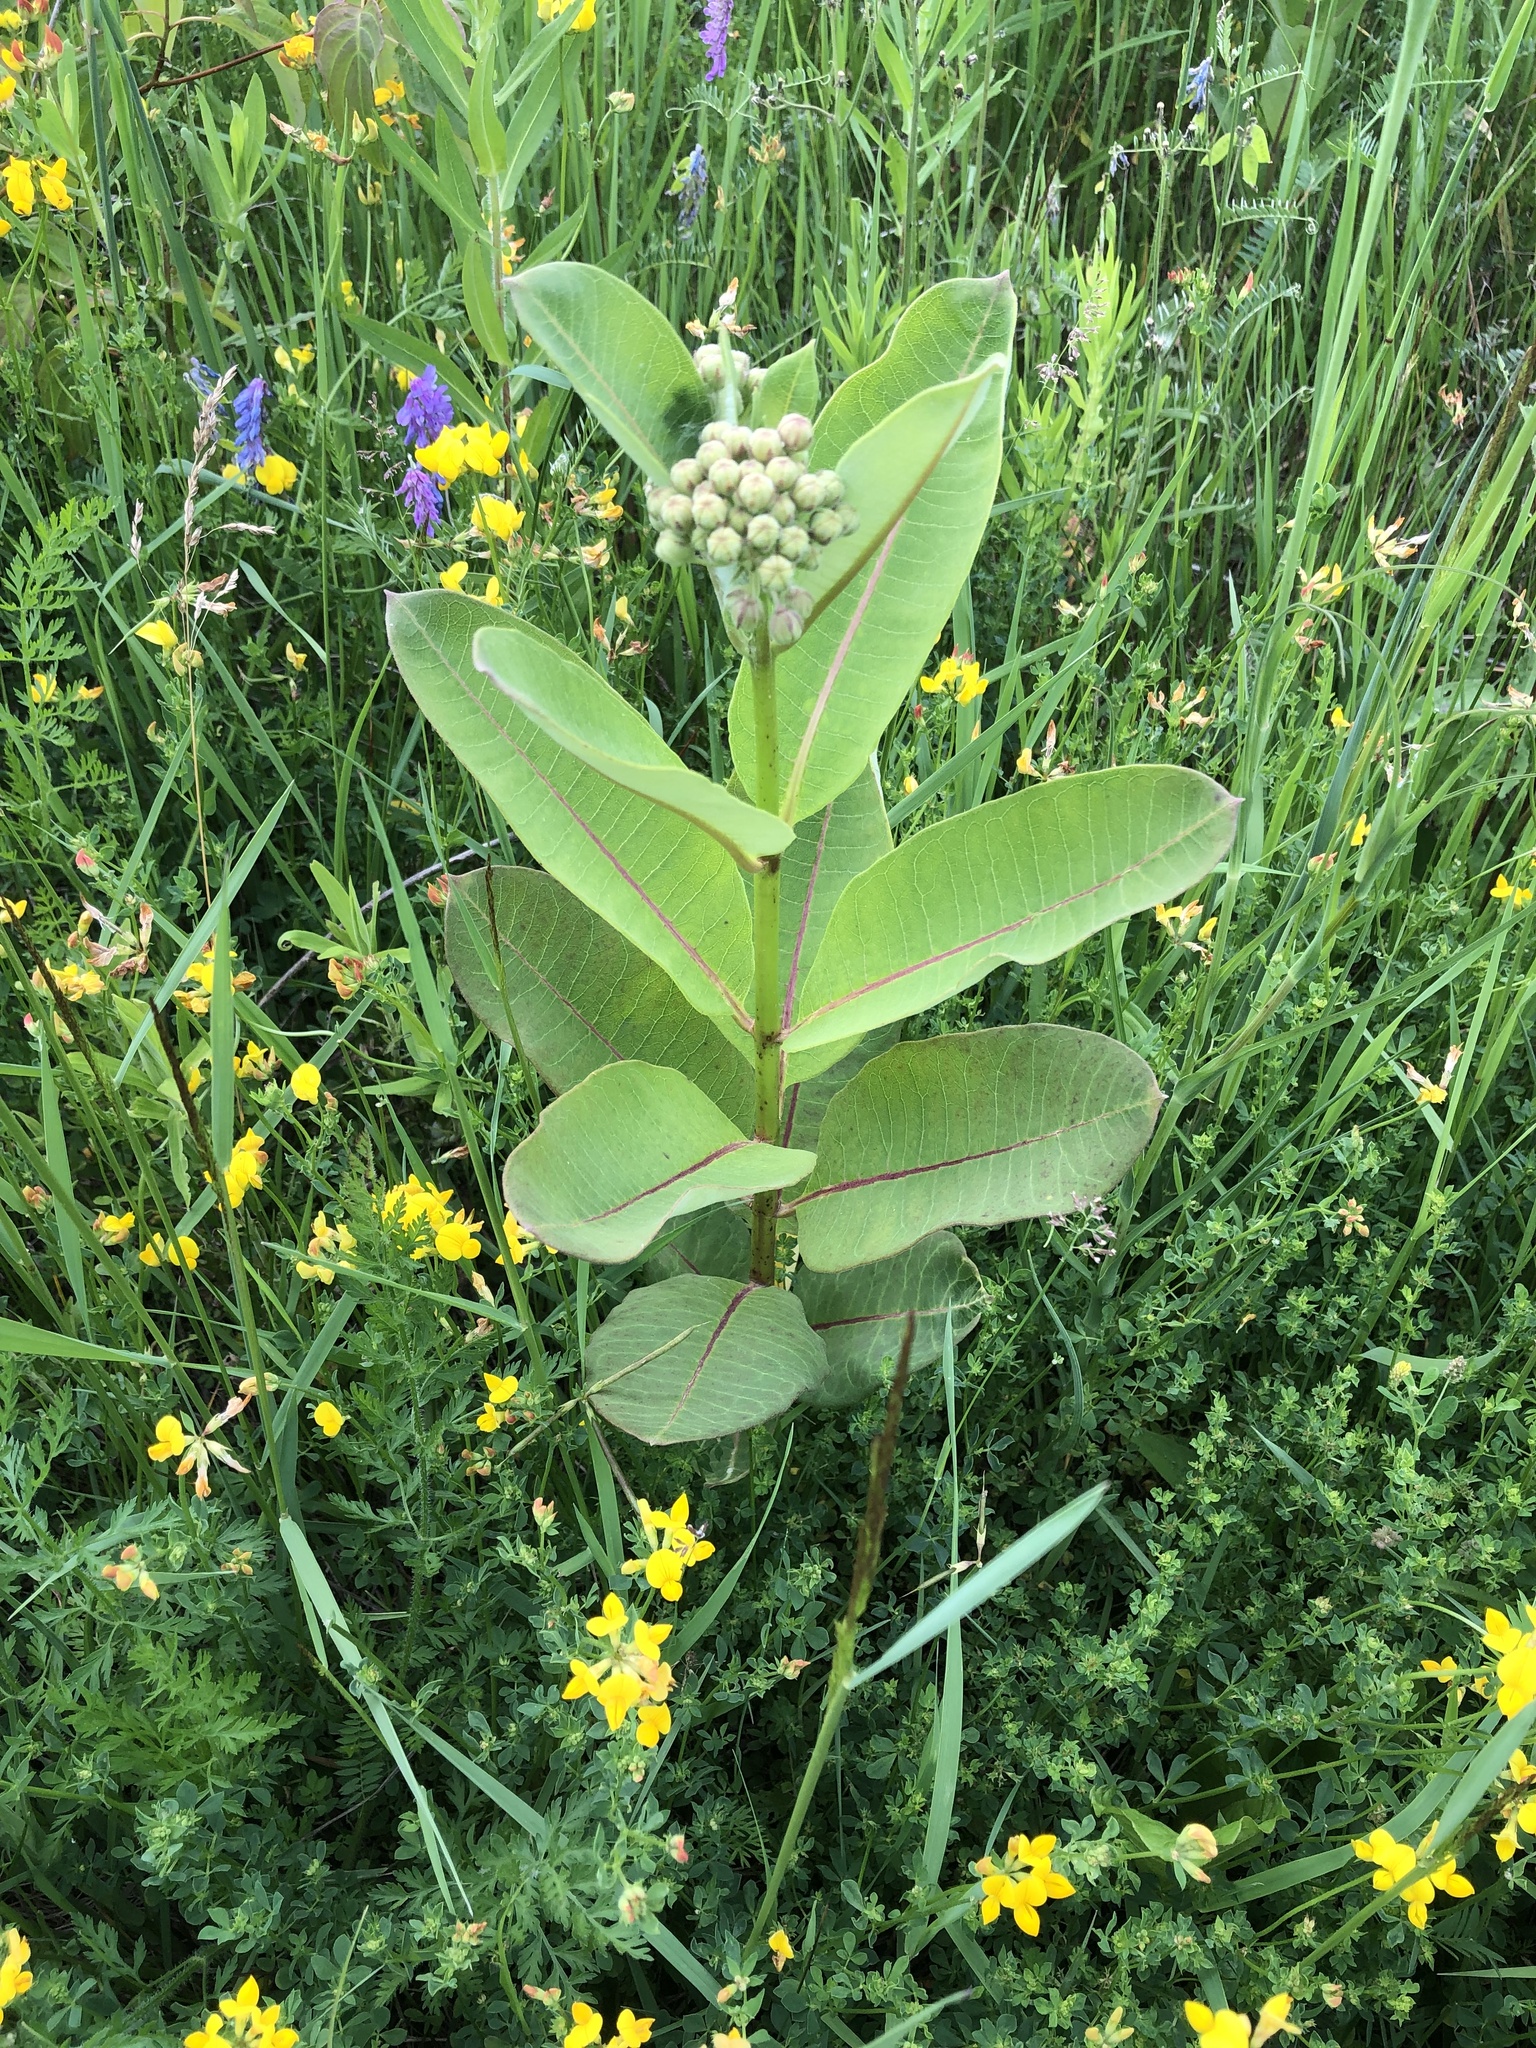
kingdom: Plantae
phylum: Tracheophyta
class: Magnoliopsida
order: Gentianales
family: Apocynaceae
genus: Asclepias
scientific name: Asclepias syriaca
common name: Common milkweed
